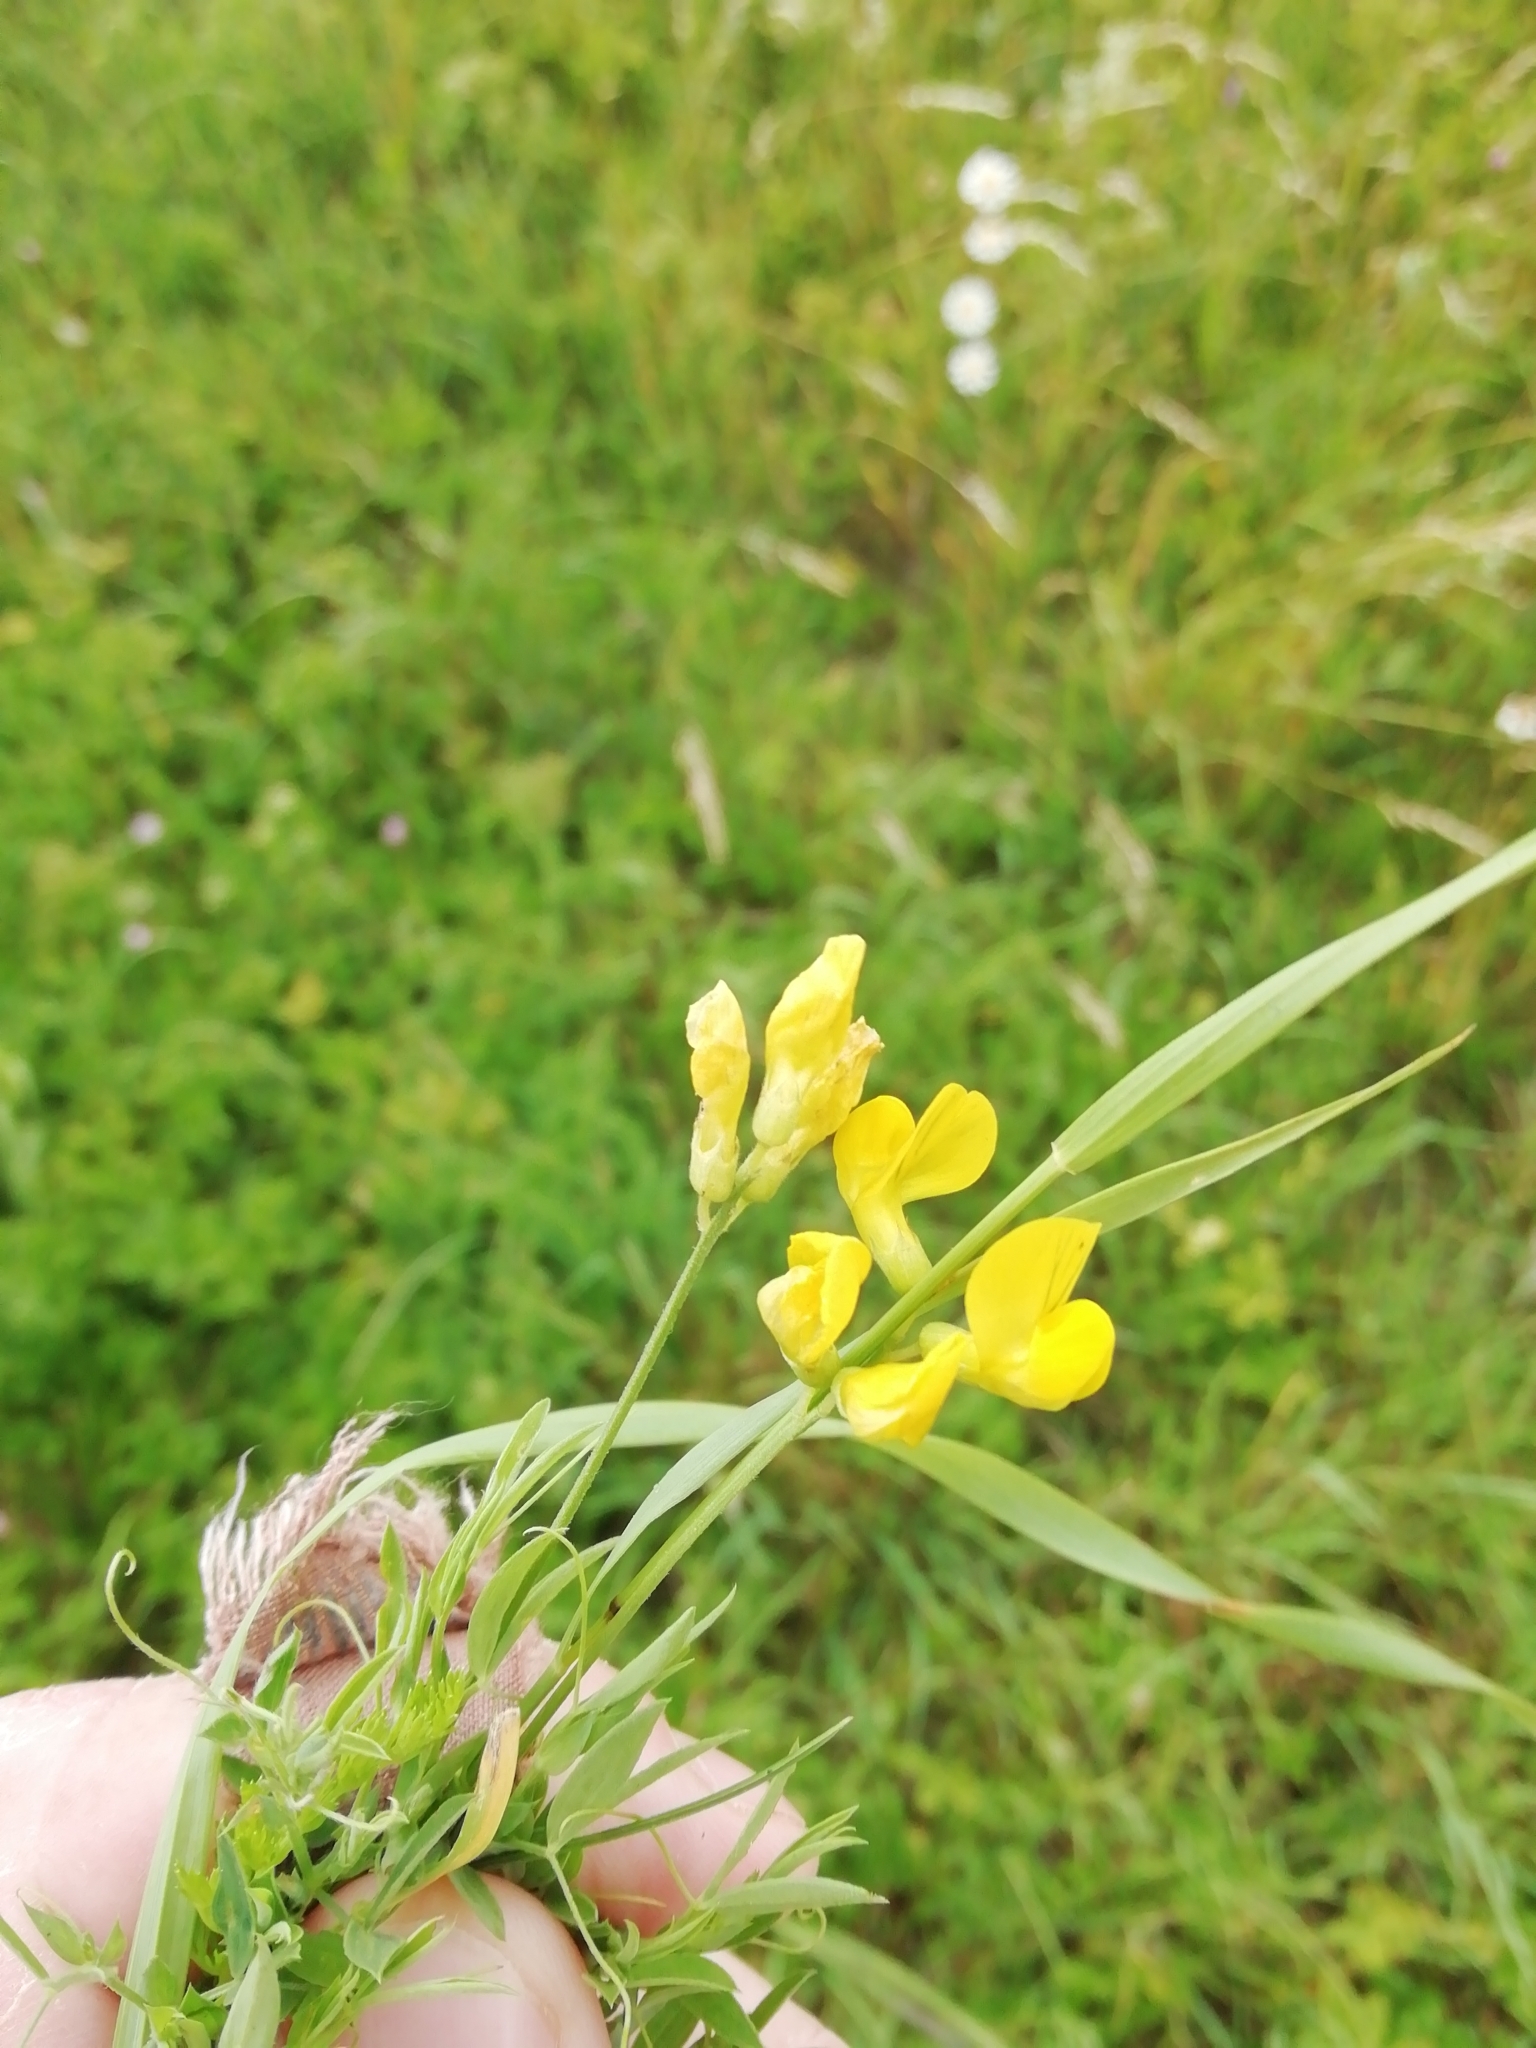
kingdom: Plantae
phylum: Tracheophyta
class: Magnoliopsida
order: Fabales
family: Fabaceae
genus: Lathyrus
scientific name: Lathyrus pratensis
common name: Meadow vetchling
